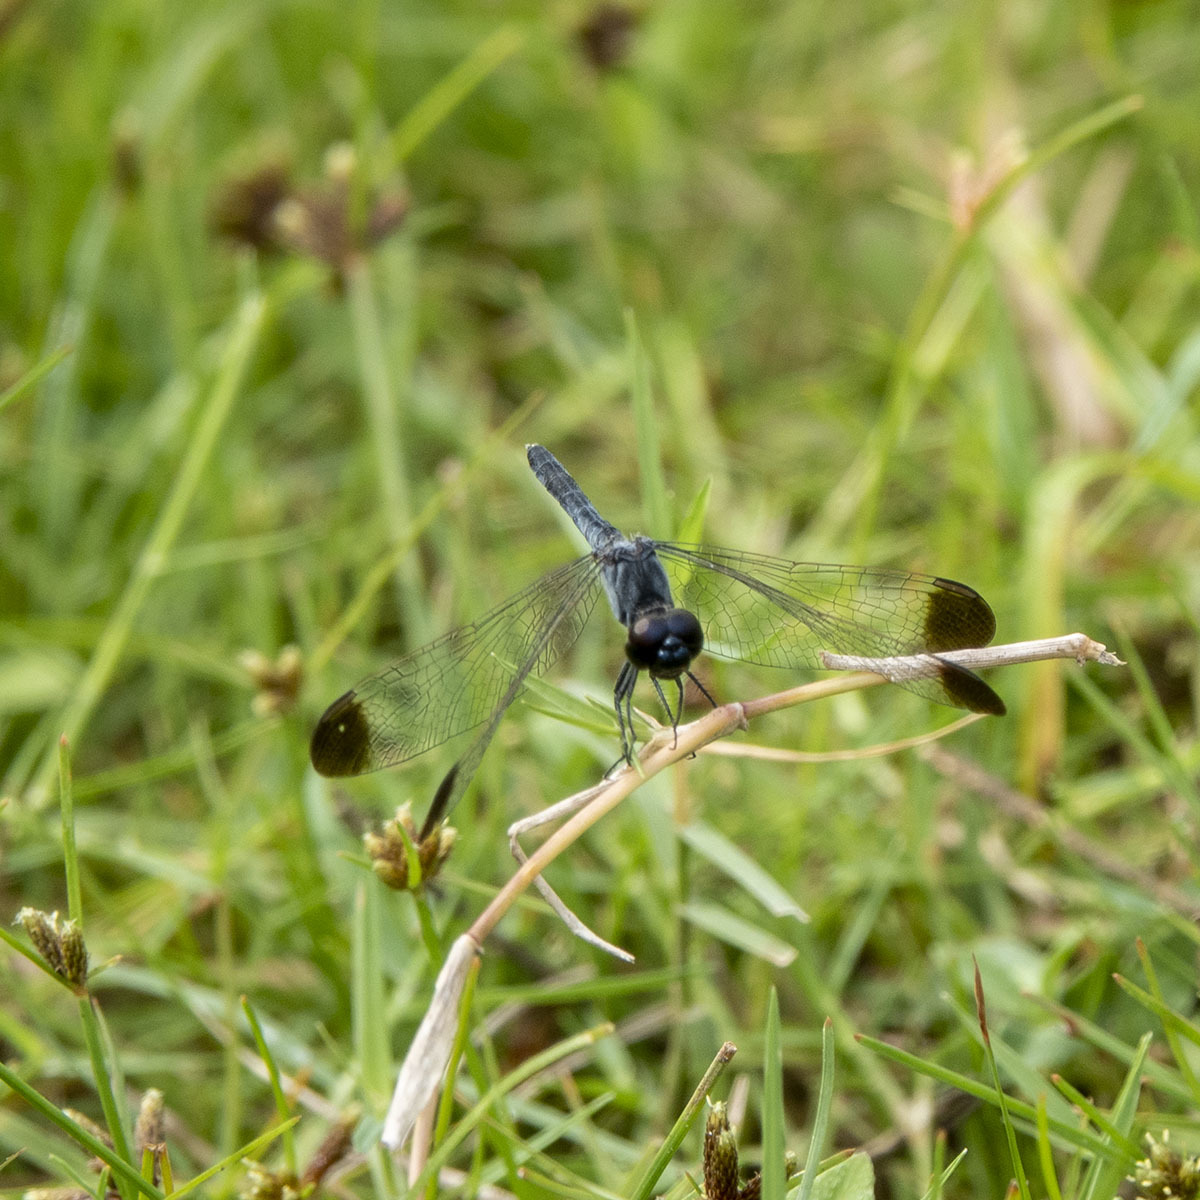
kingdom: Animalia
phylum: Arthropoda
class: Insecta
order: Odonata
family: Libellulidae
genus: Diplacodes
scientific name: Diplacodes nebulosa
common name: Black-tipped percher
